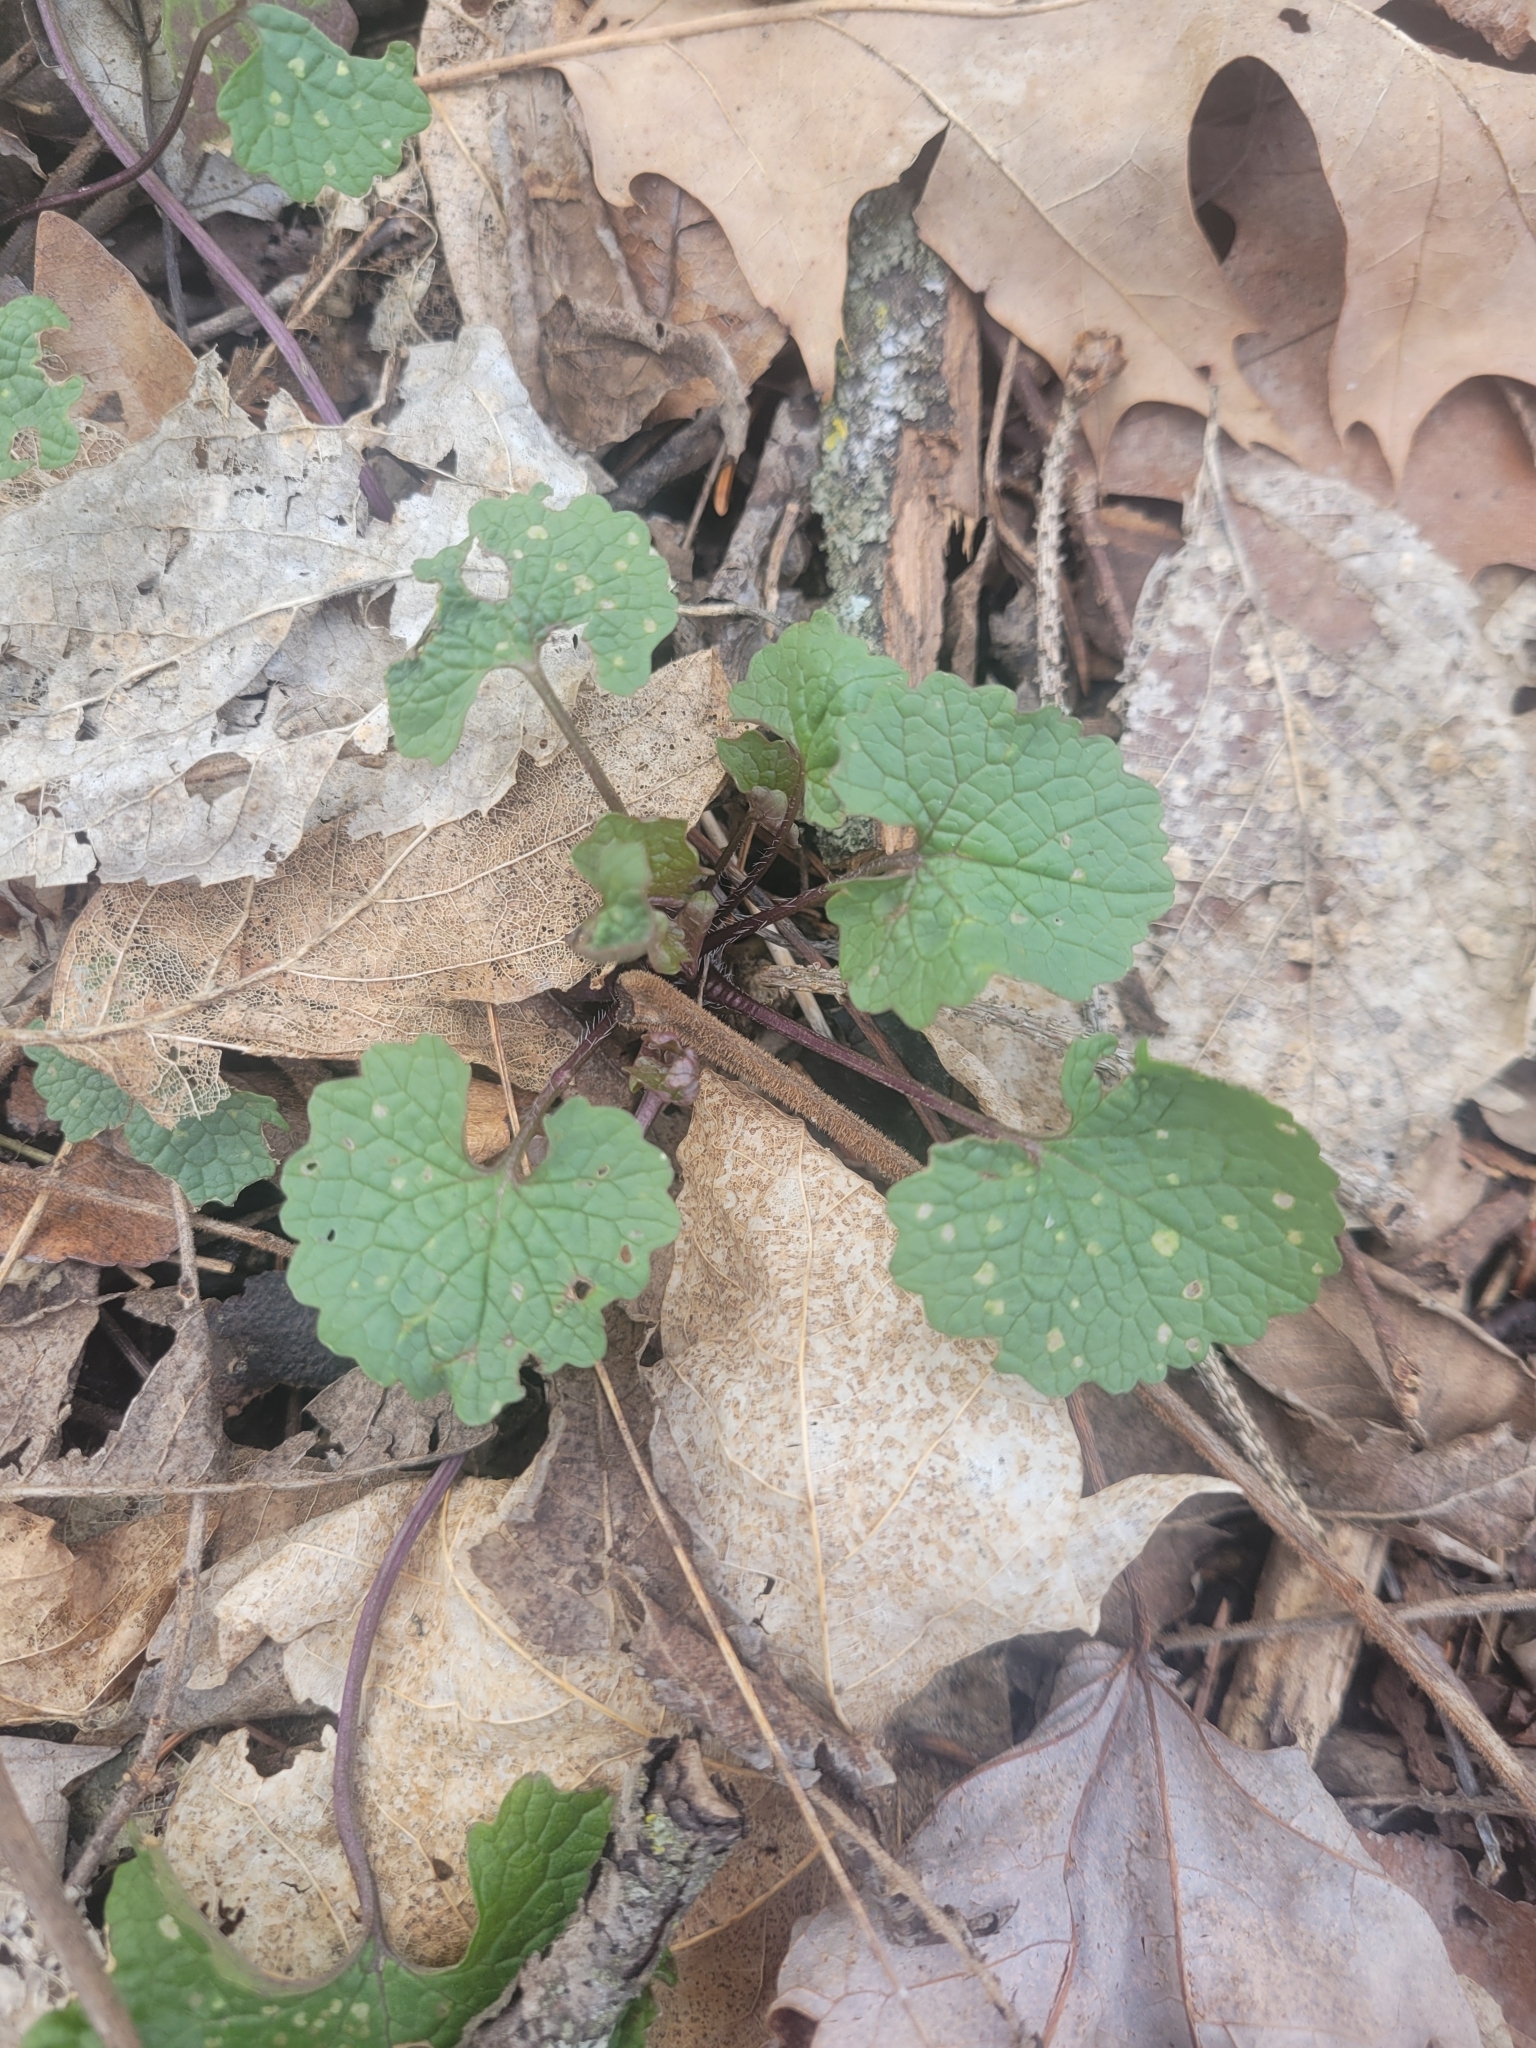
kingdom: Plantae
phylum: Tracheophyta
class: Magnoliopsida
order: Brassicales
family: Brassicaceae
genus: Alliaria
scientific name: Alliaria petiolata
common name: Garlic mustard
